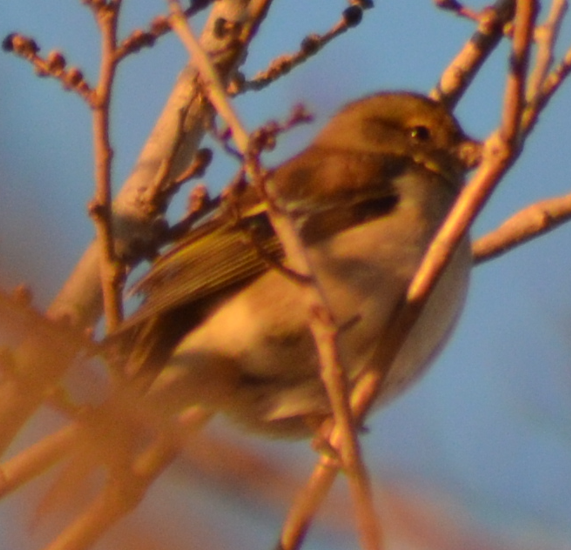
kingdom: Animalia
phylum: Chordata
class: Aves
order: Passeriformes
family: Fringillidae
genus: Fringilla
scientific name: Fringilla coelebs
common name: Common chaffinch
